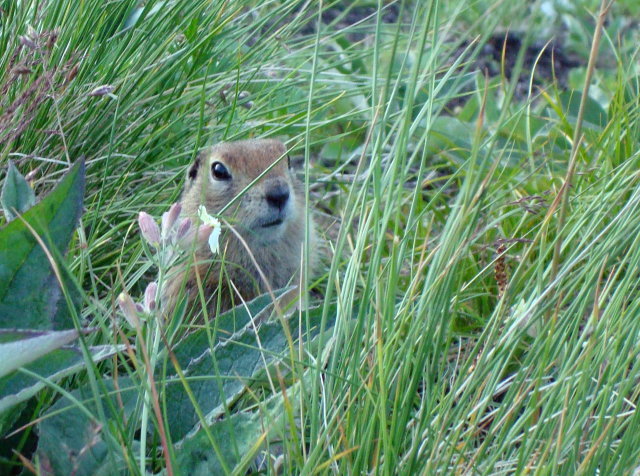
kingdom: Animalia
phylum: Chordata
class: Mammalia
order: Rodentia
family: Sciuridae
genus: Urocitellus
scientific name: Urocitellus parryii
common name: Arctic ground squirrel
